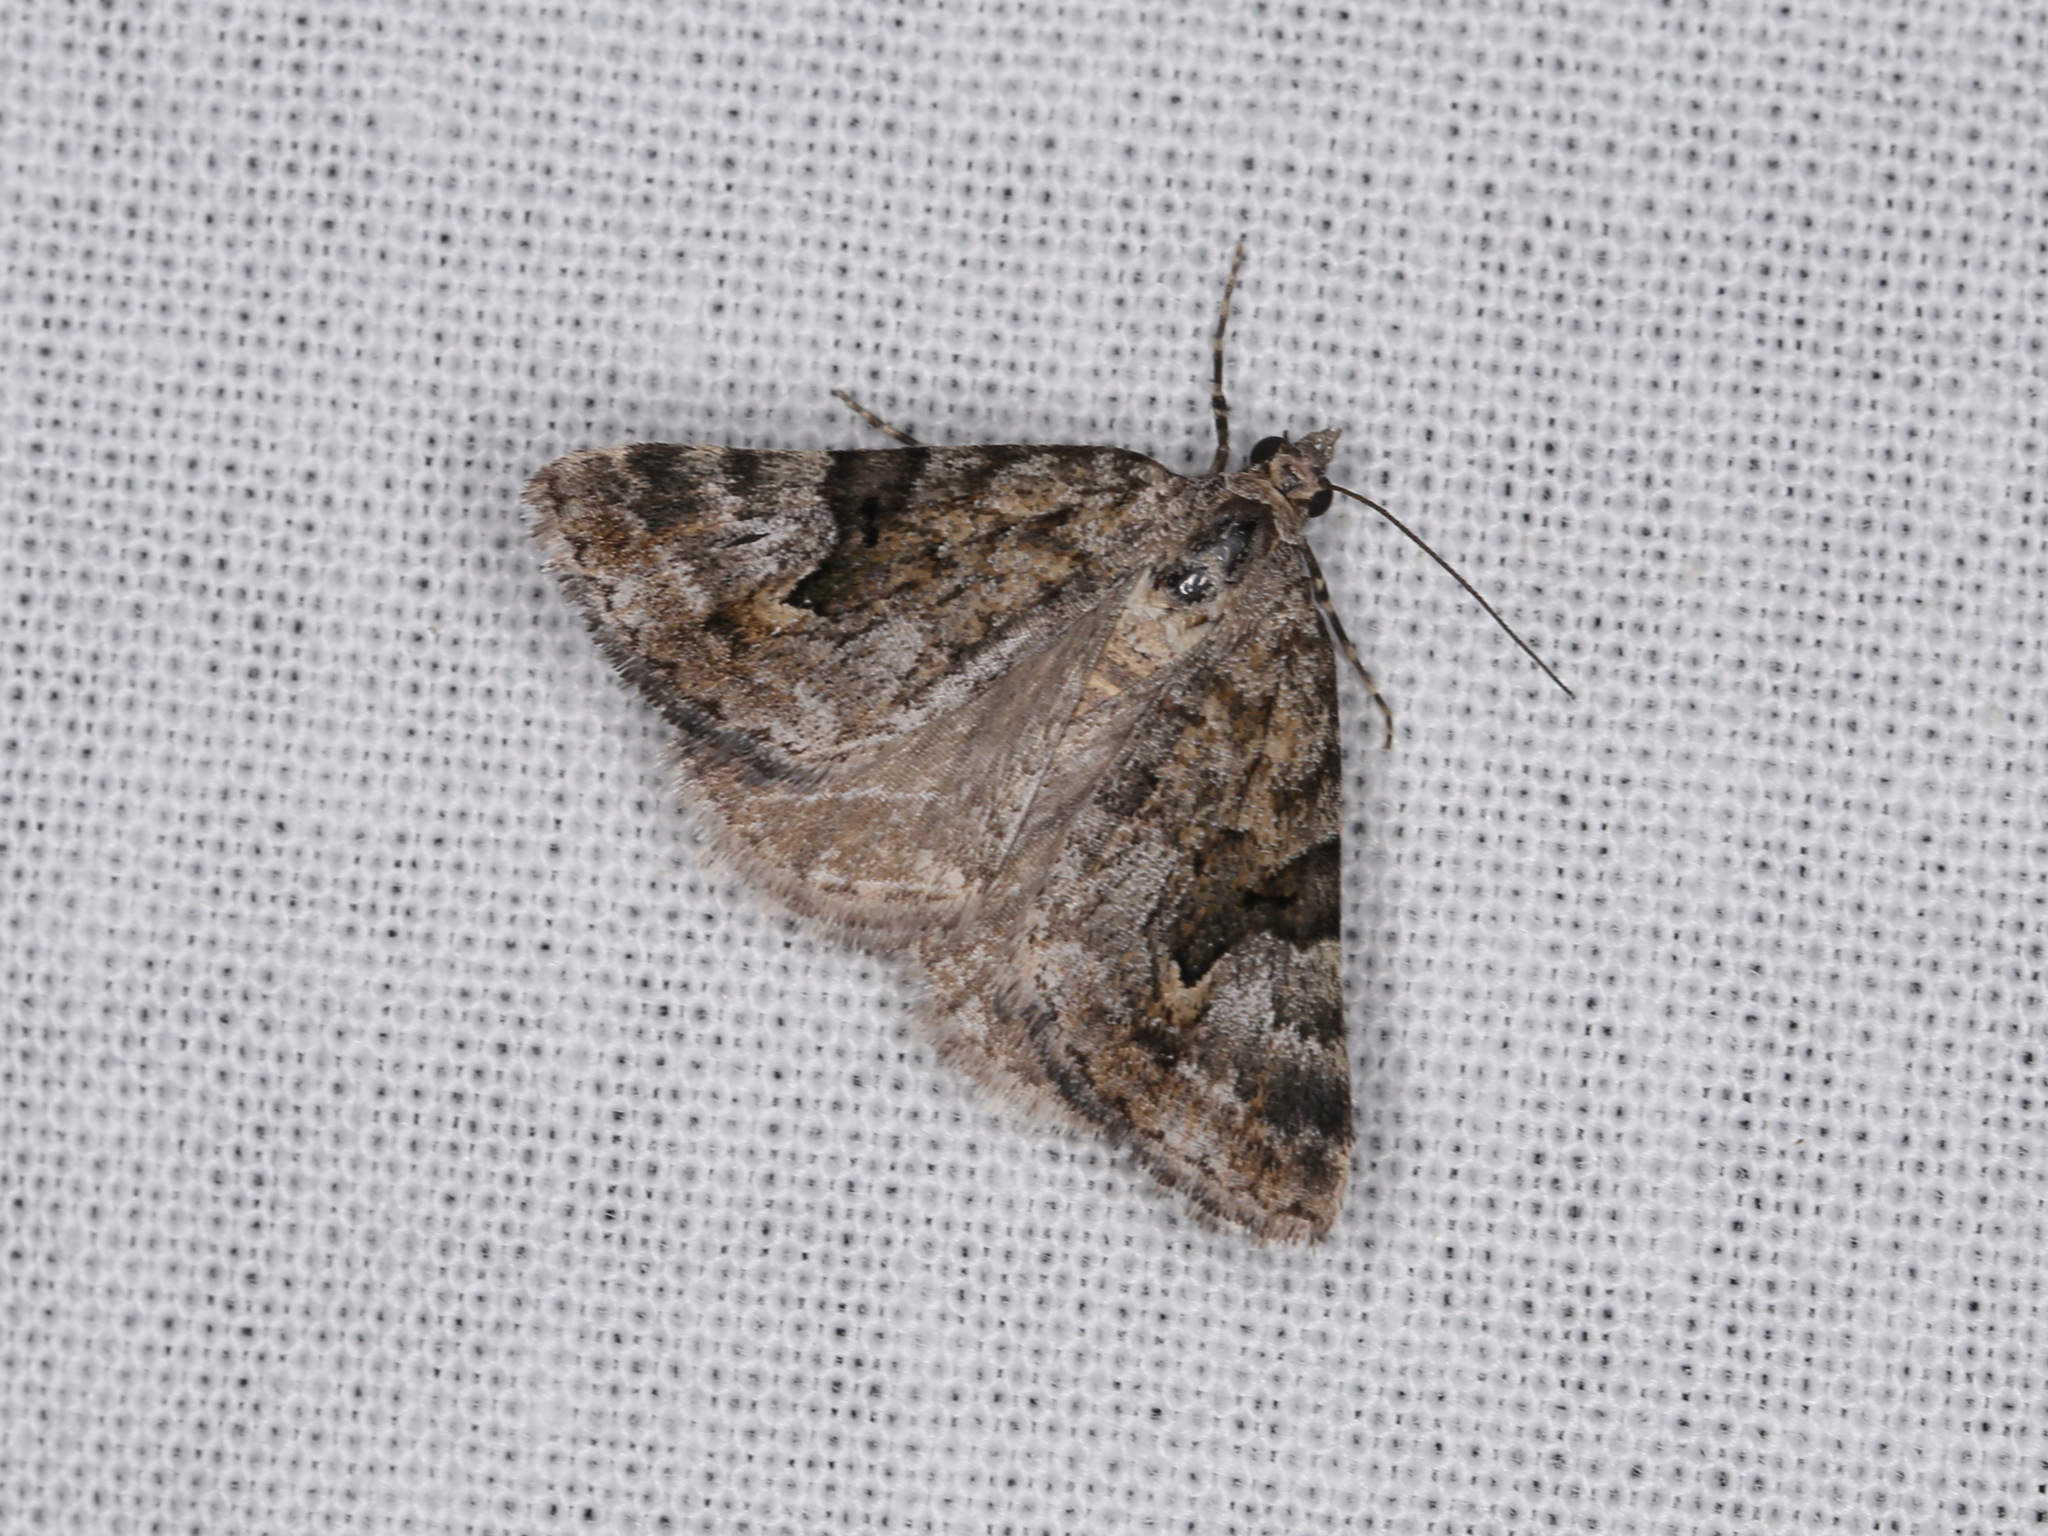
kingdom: Animalia
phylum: Arthropoda
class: Insecta
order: Lepidoptera
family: Geometridae
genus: Dichromodes
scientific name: Dichromodes anelictis
